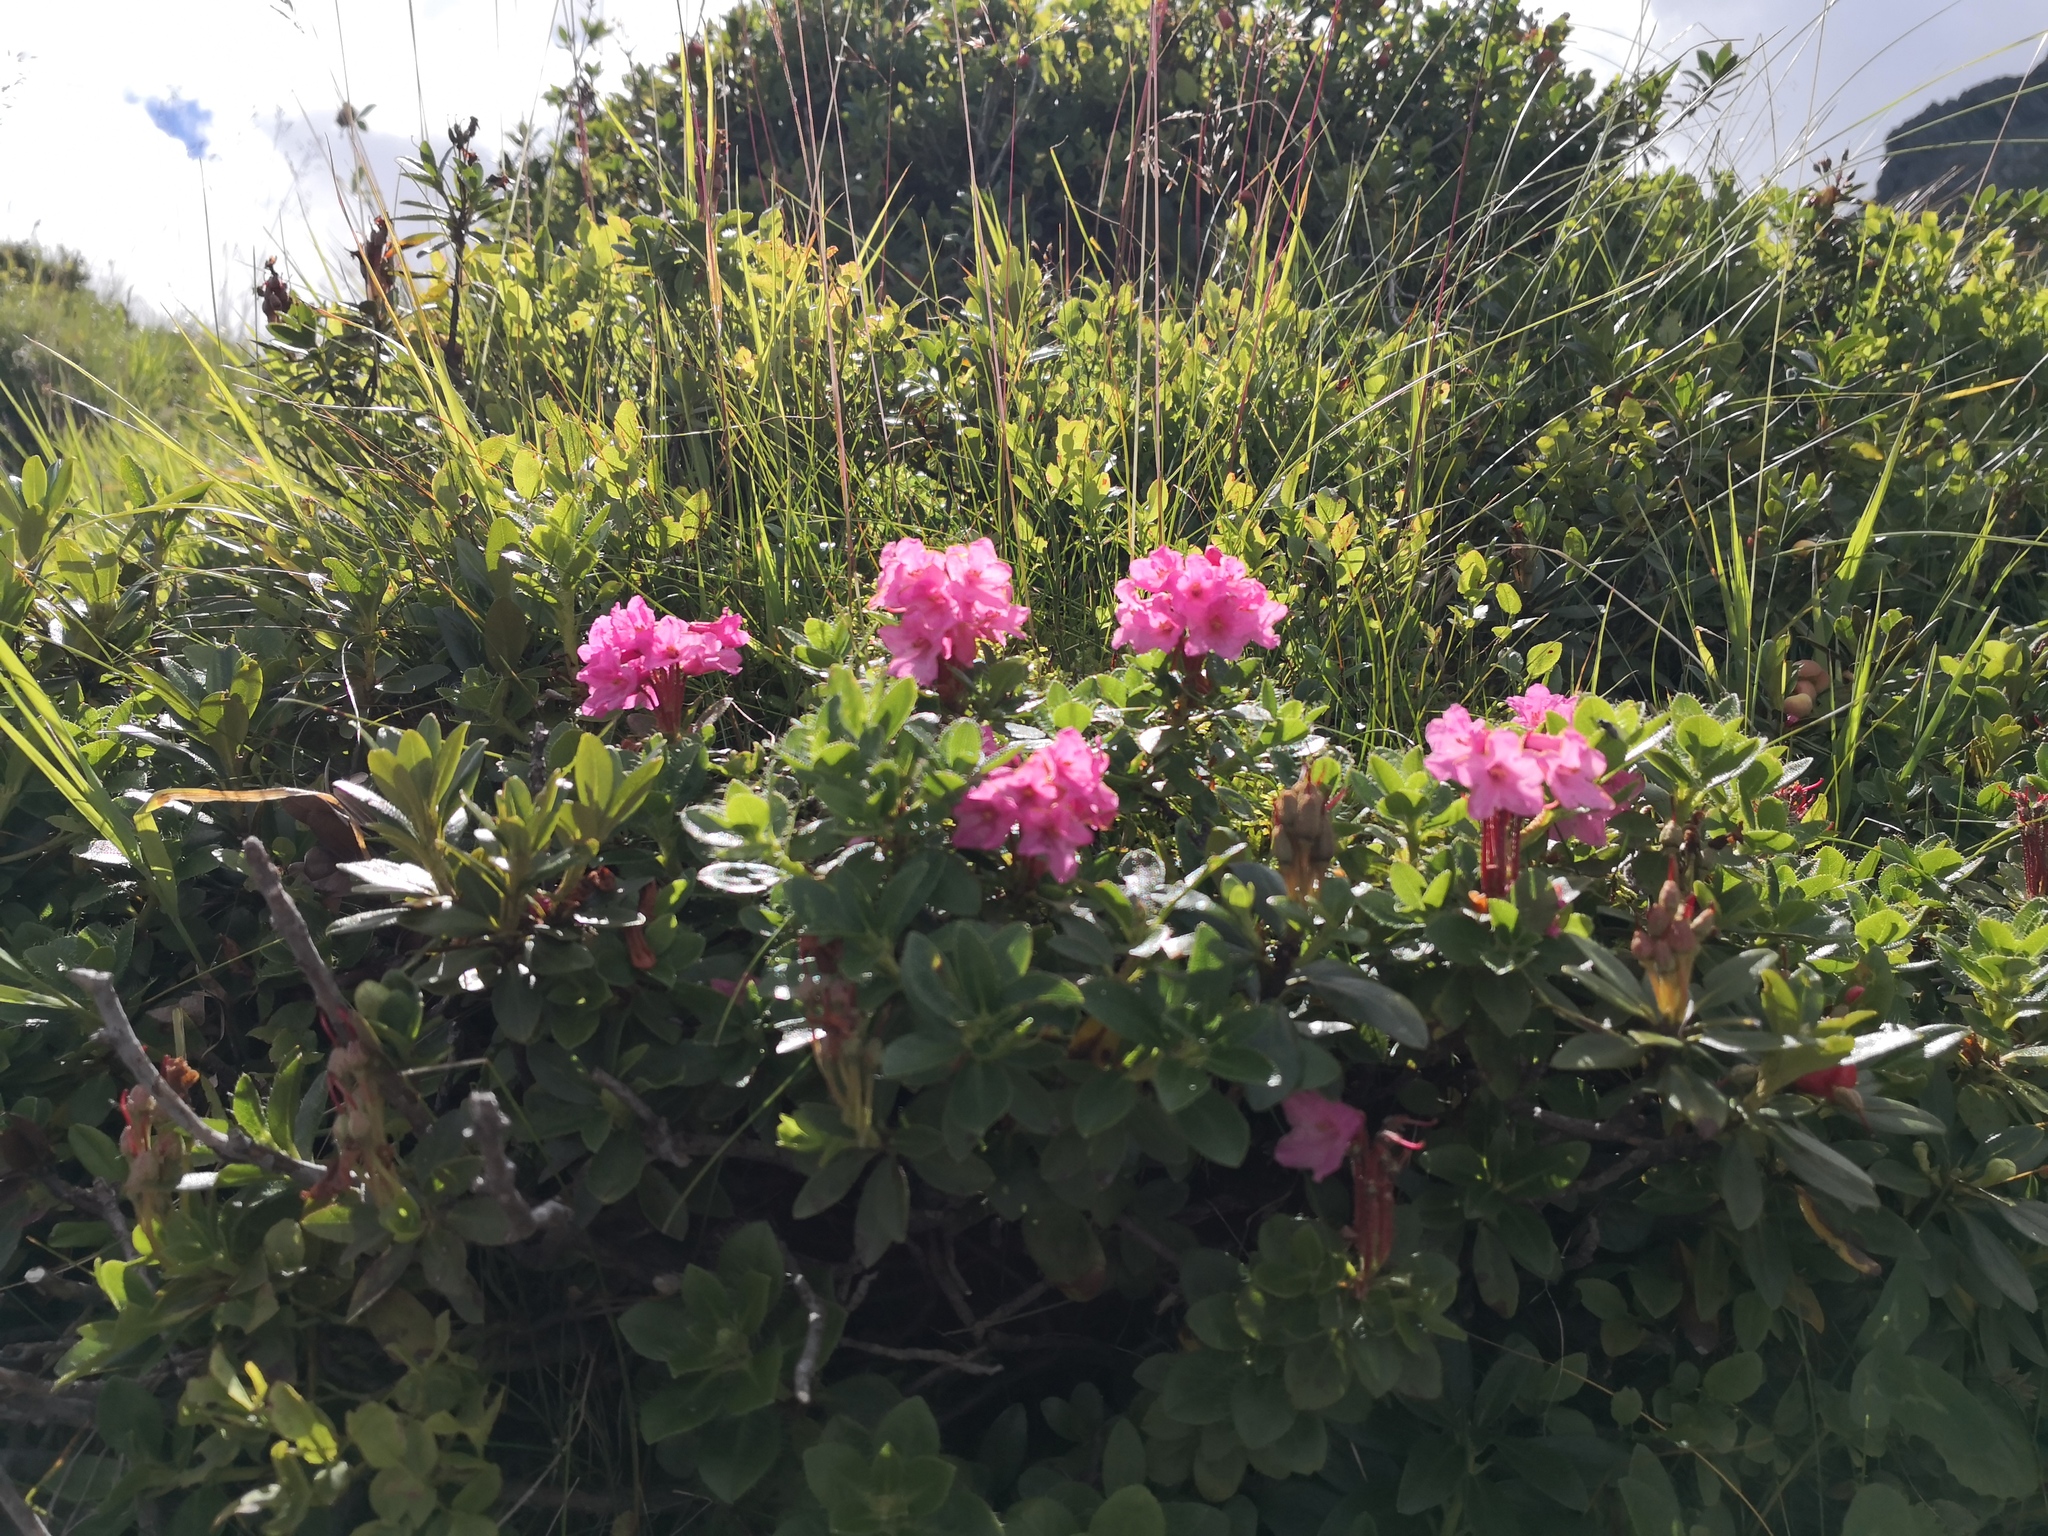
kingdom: Plantae
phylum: Tracheophyta
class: Magnoliopsida
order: Ericales
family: Ericaceae
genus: Rhododendron
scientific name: Rhododendron hirsutum
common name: Hairy alpenrose
